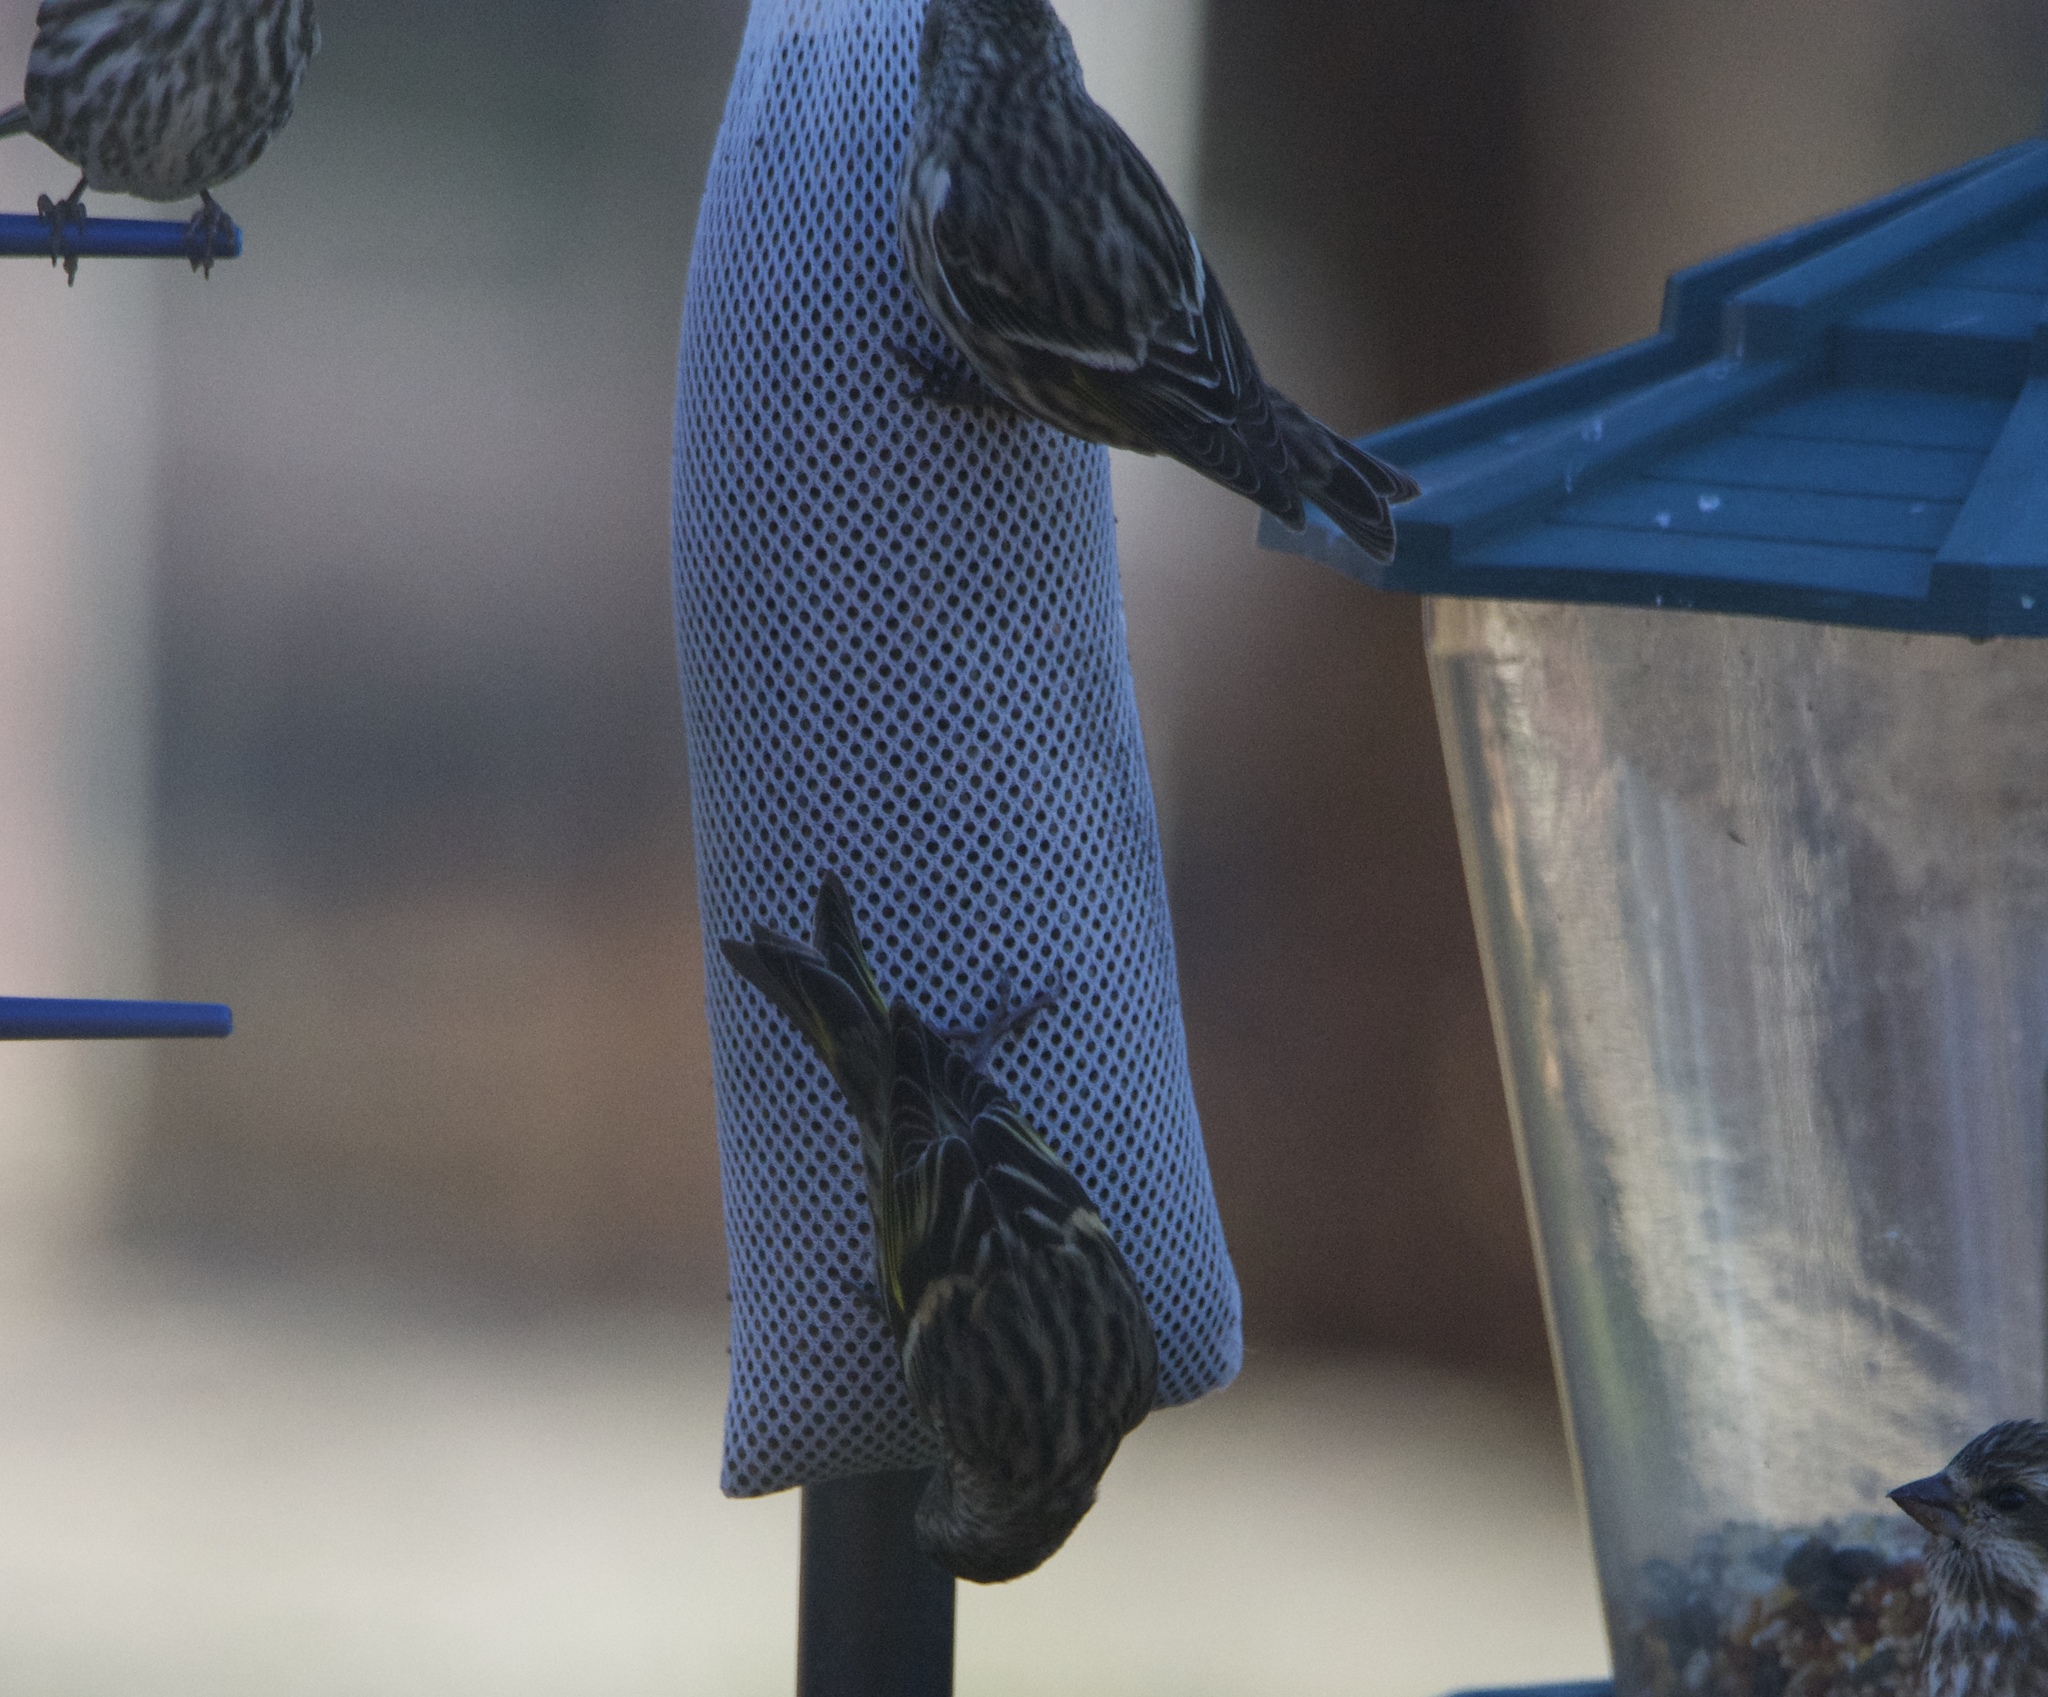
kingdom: Animalia
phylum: Chordata
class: Aves
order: Passeriformes
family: Fringillidae
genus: Spinus
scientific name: Spinus pinus
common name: Pine siskin
